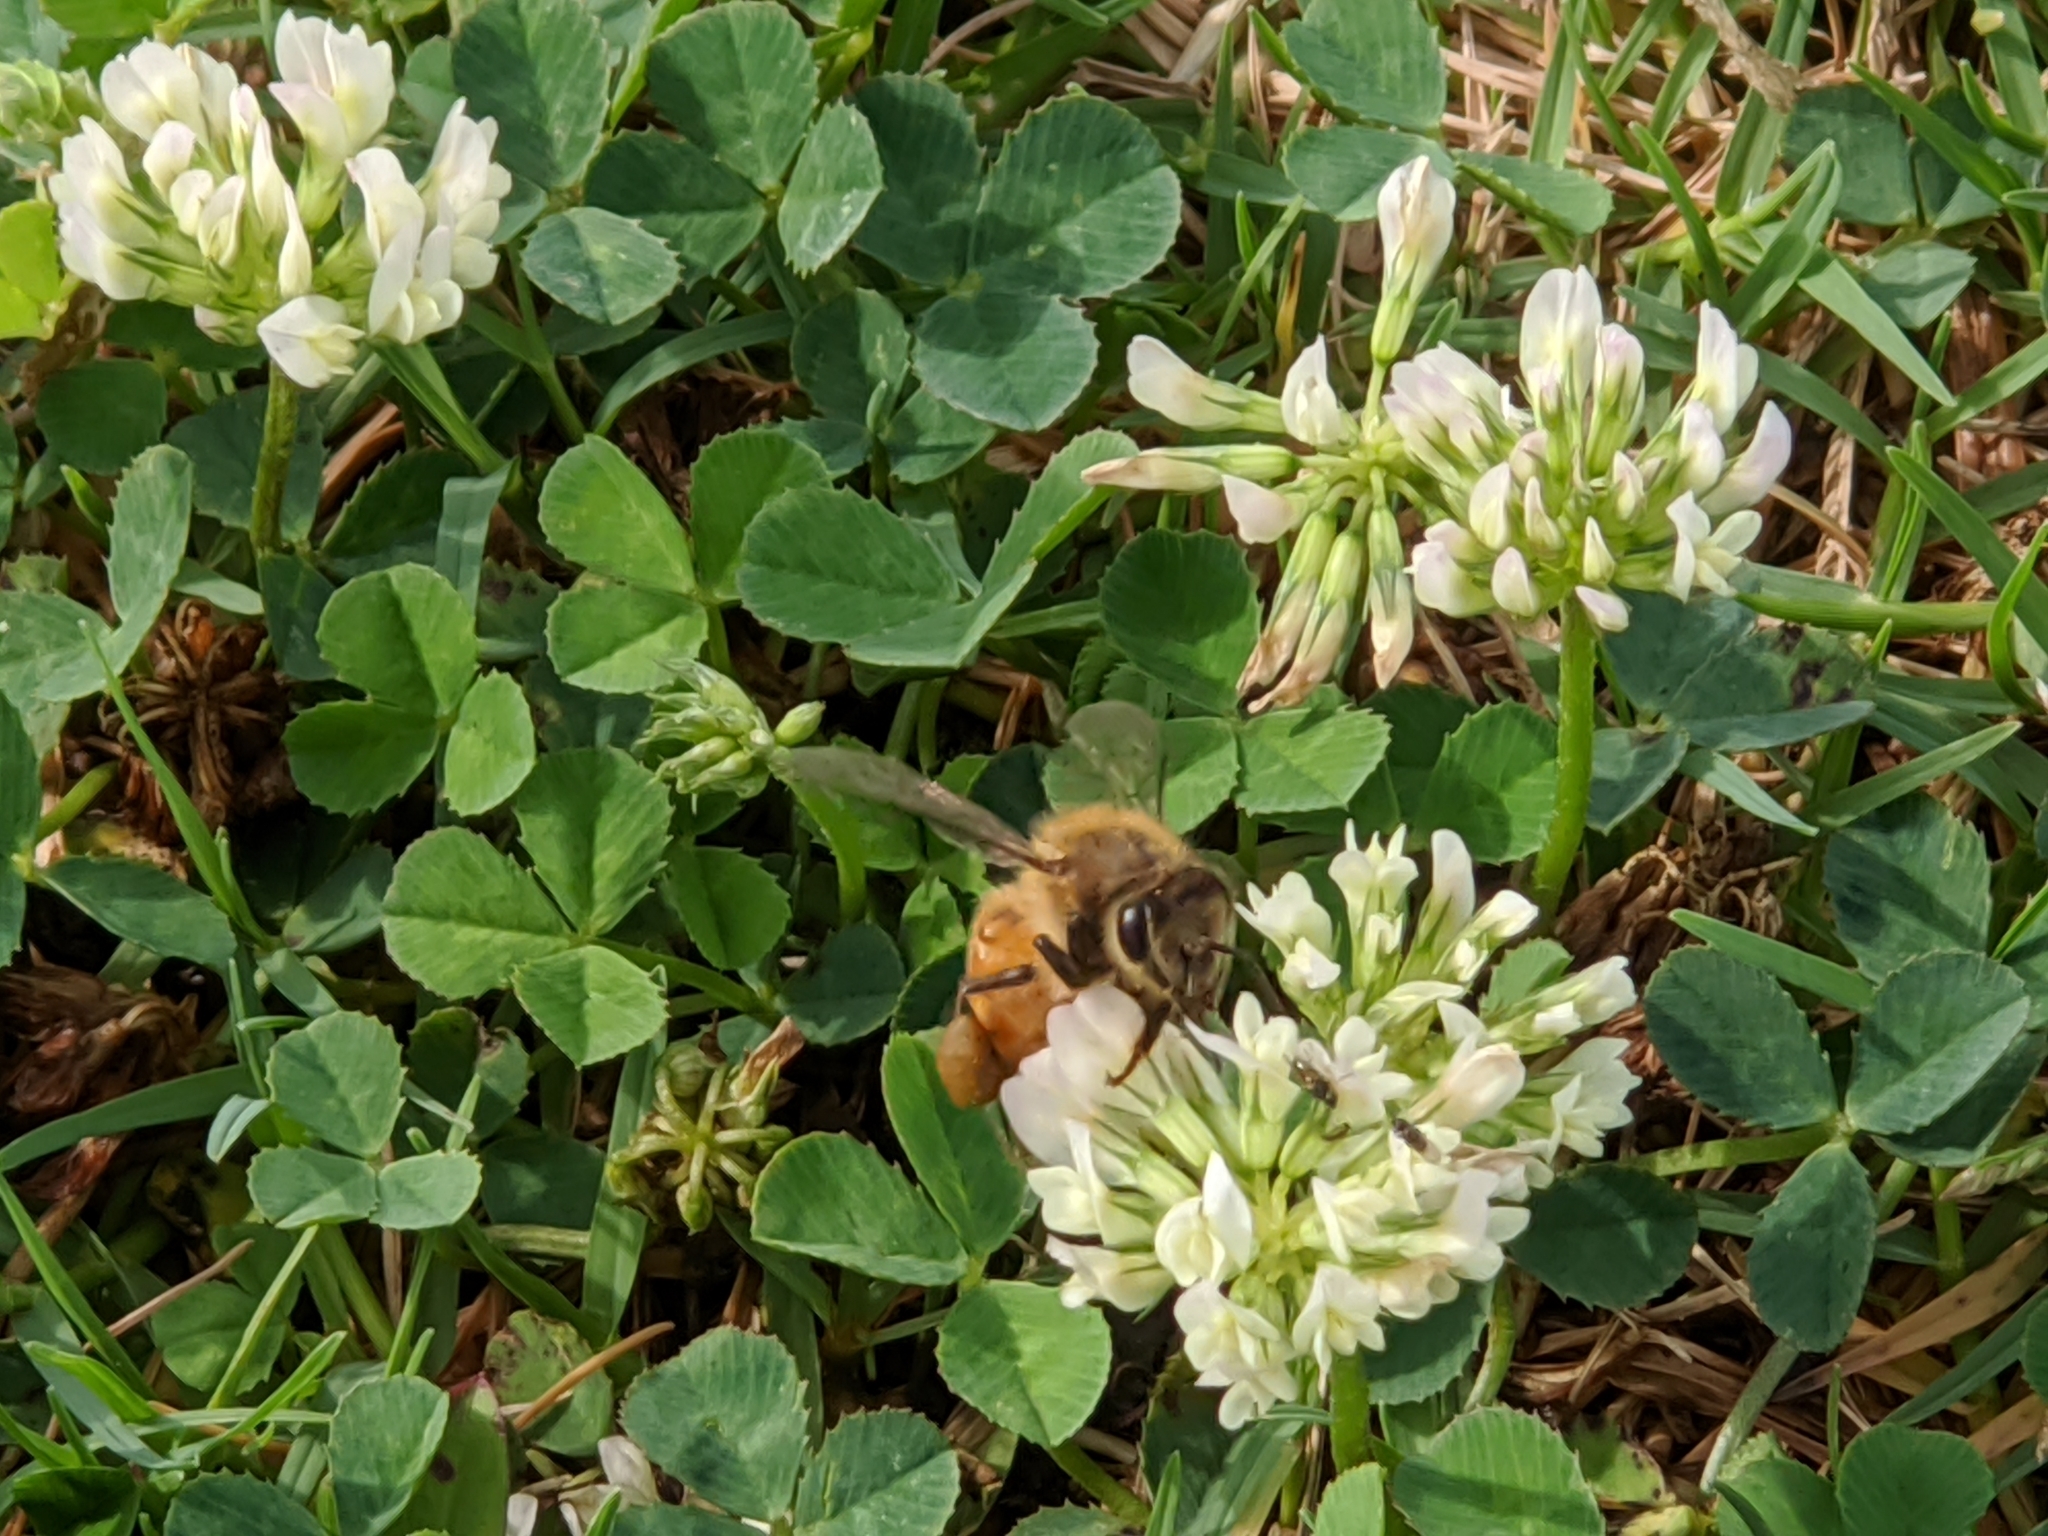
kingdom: Animalia
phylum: Arthropoda
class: Insecta
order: Hymenoptera
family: Apidae
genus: Apis
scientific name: Apis mellifera
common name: Honey bee
